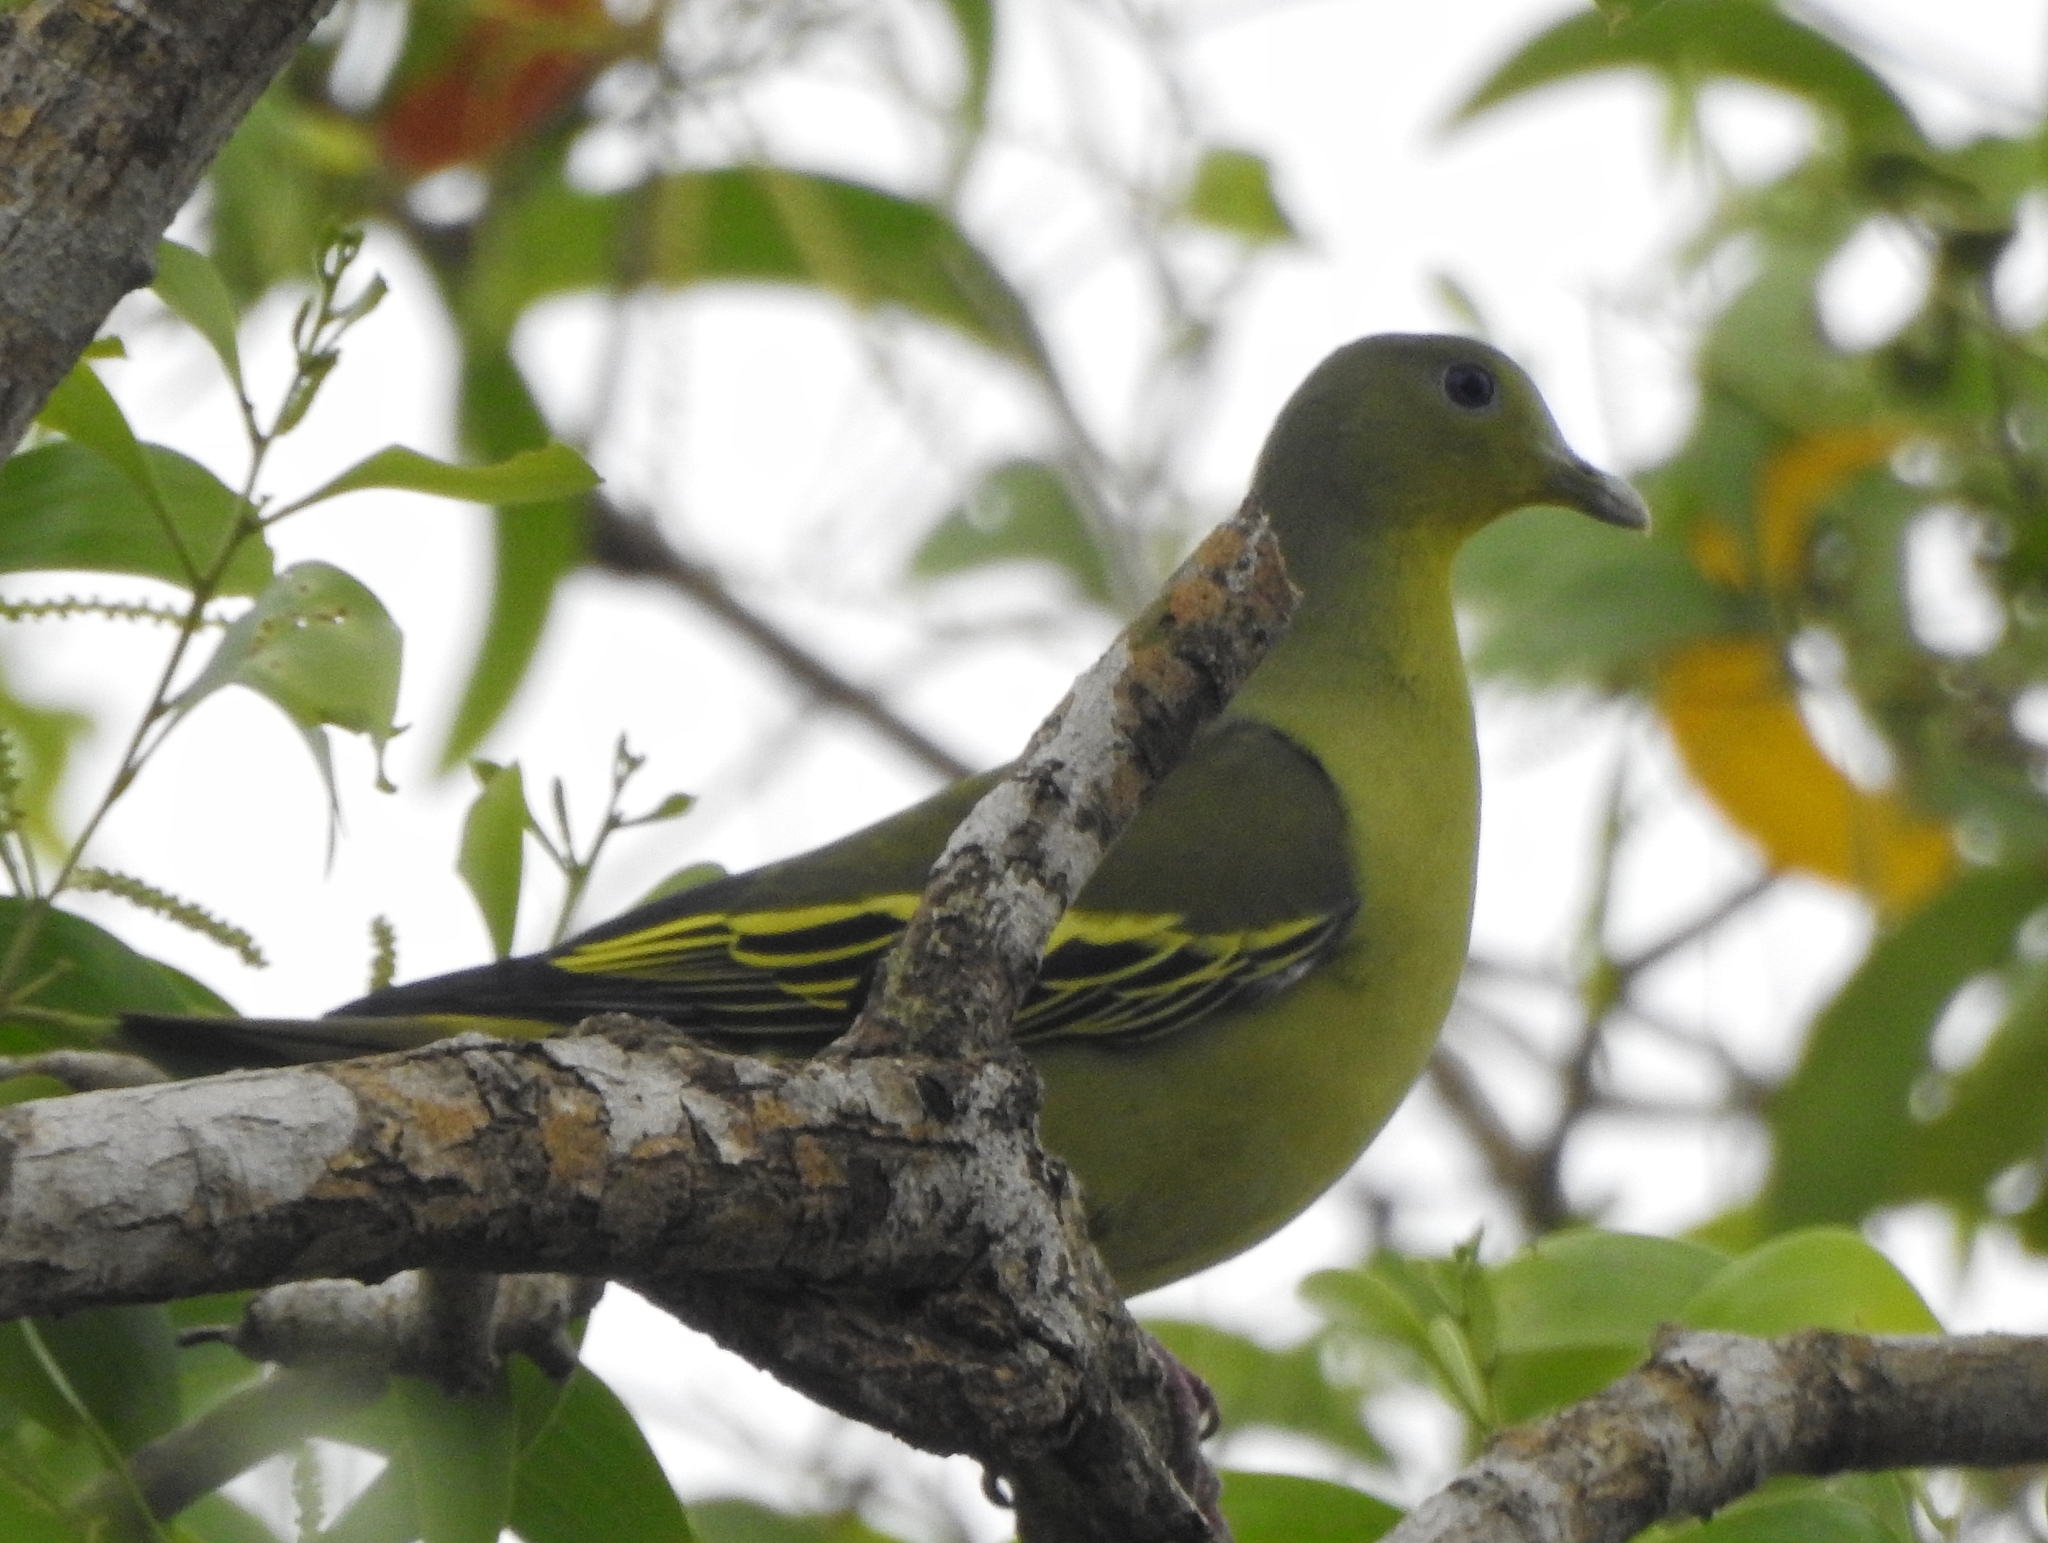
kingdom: Animalia
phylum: Chordata
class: Aves
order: Columbiformes
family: Columbidae
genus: Treron
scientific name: Treron affinis
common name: Grey-fronted green pigeon
